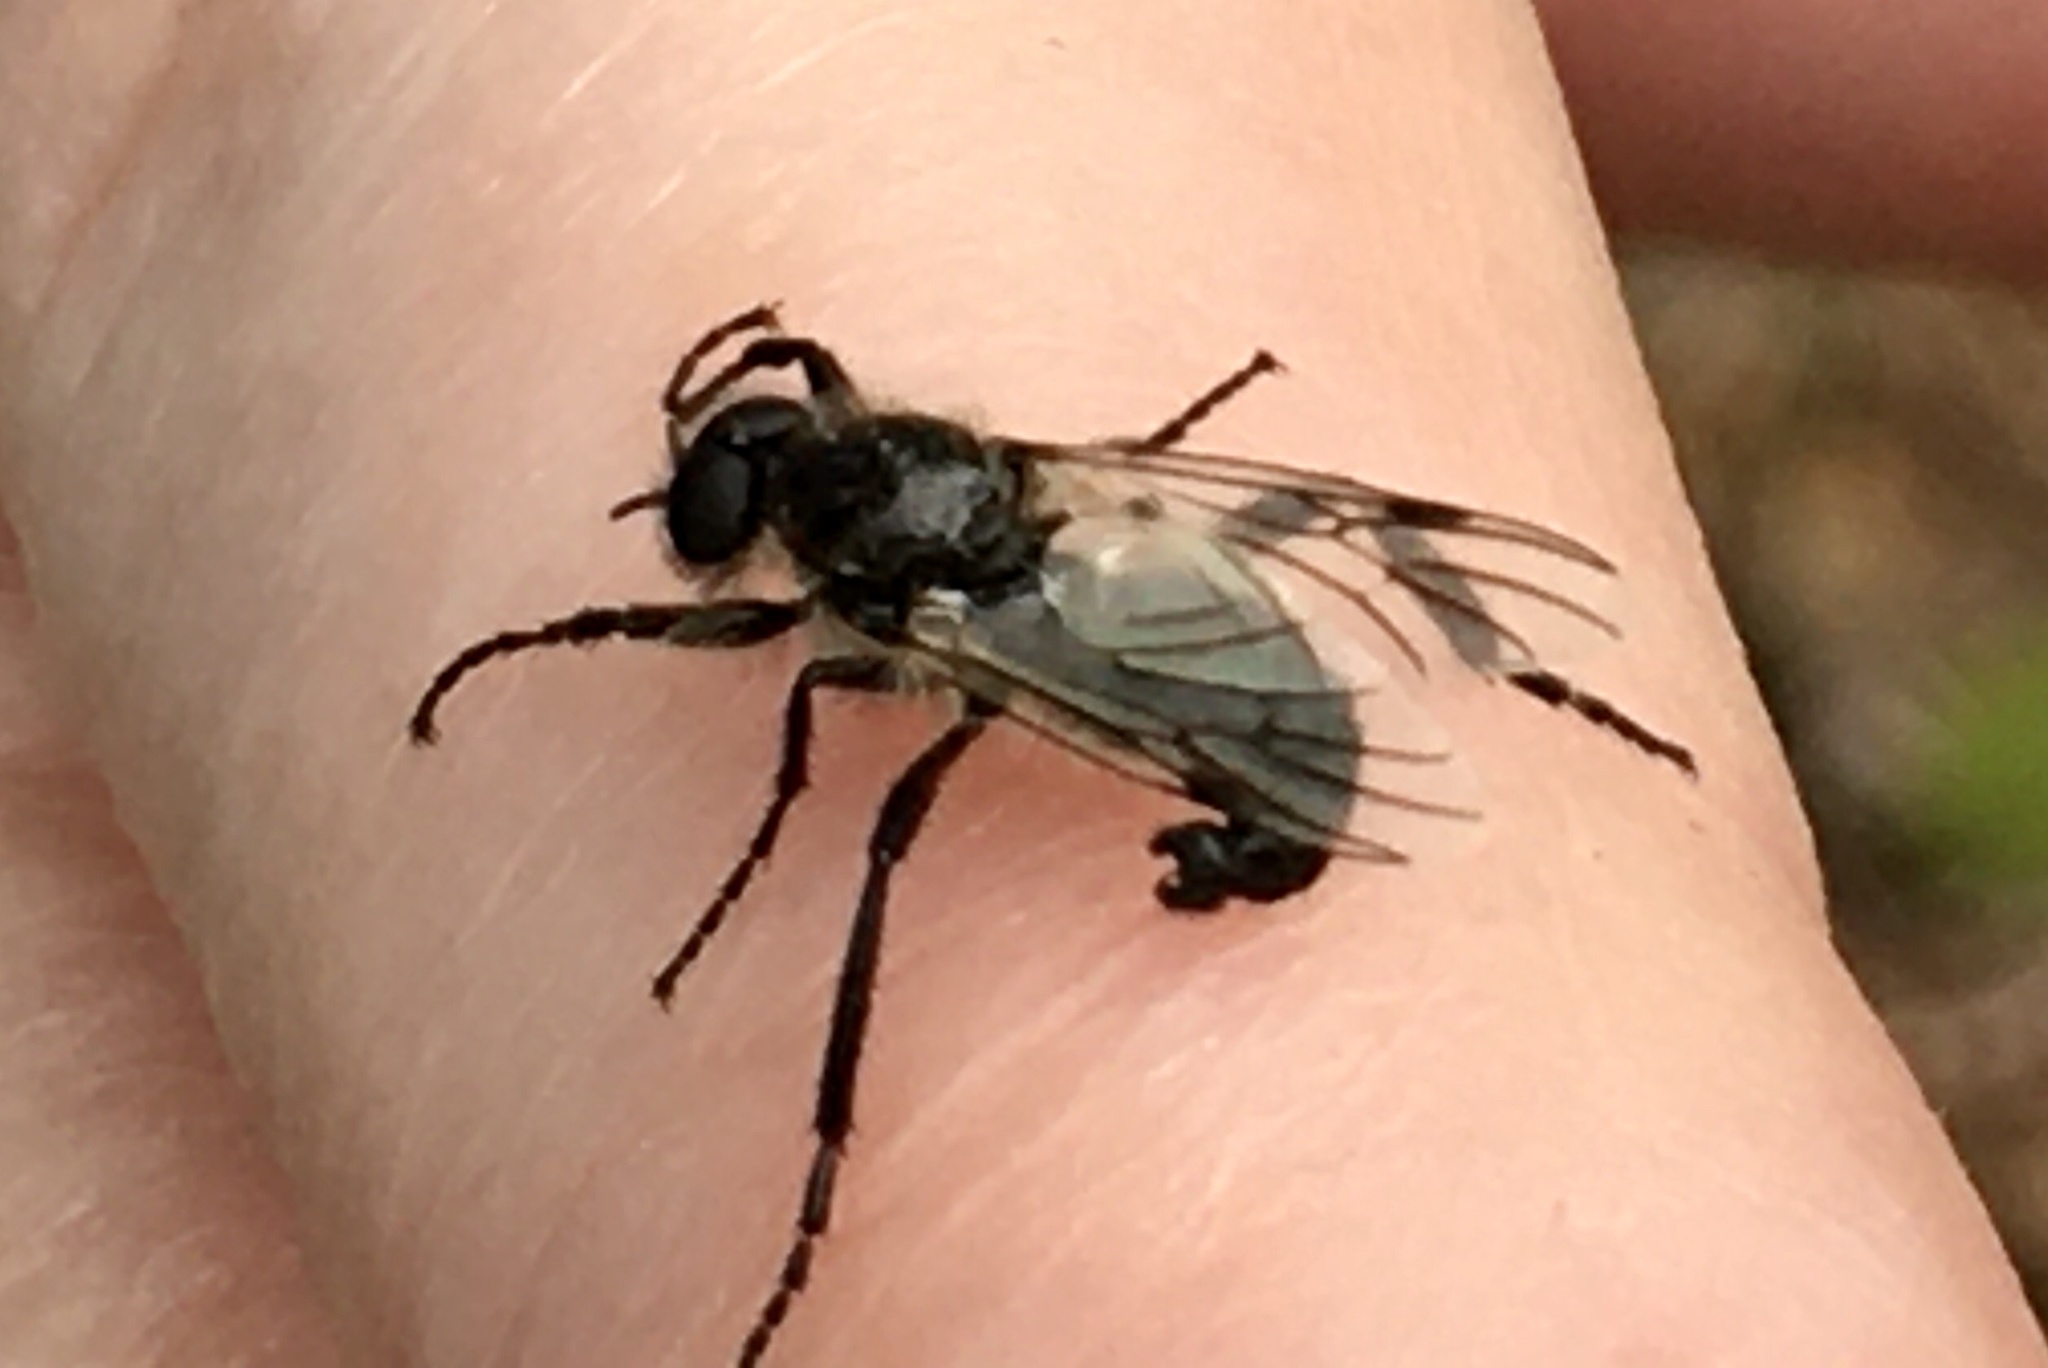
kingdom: Animalia
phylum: Arthropoda
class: Insecta
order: Diptera
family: Bibionidae
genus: Bibio
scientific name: Bibio albipennis
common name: White-winged march fly
